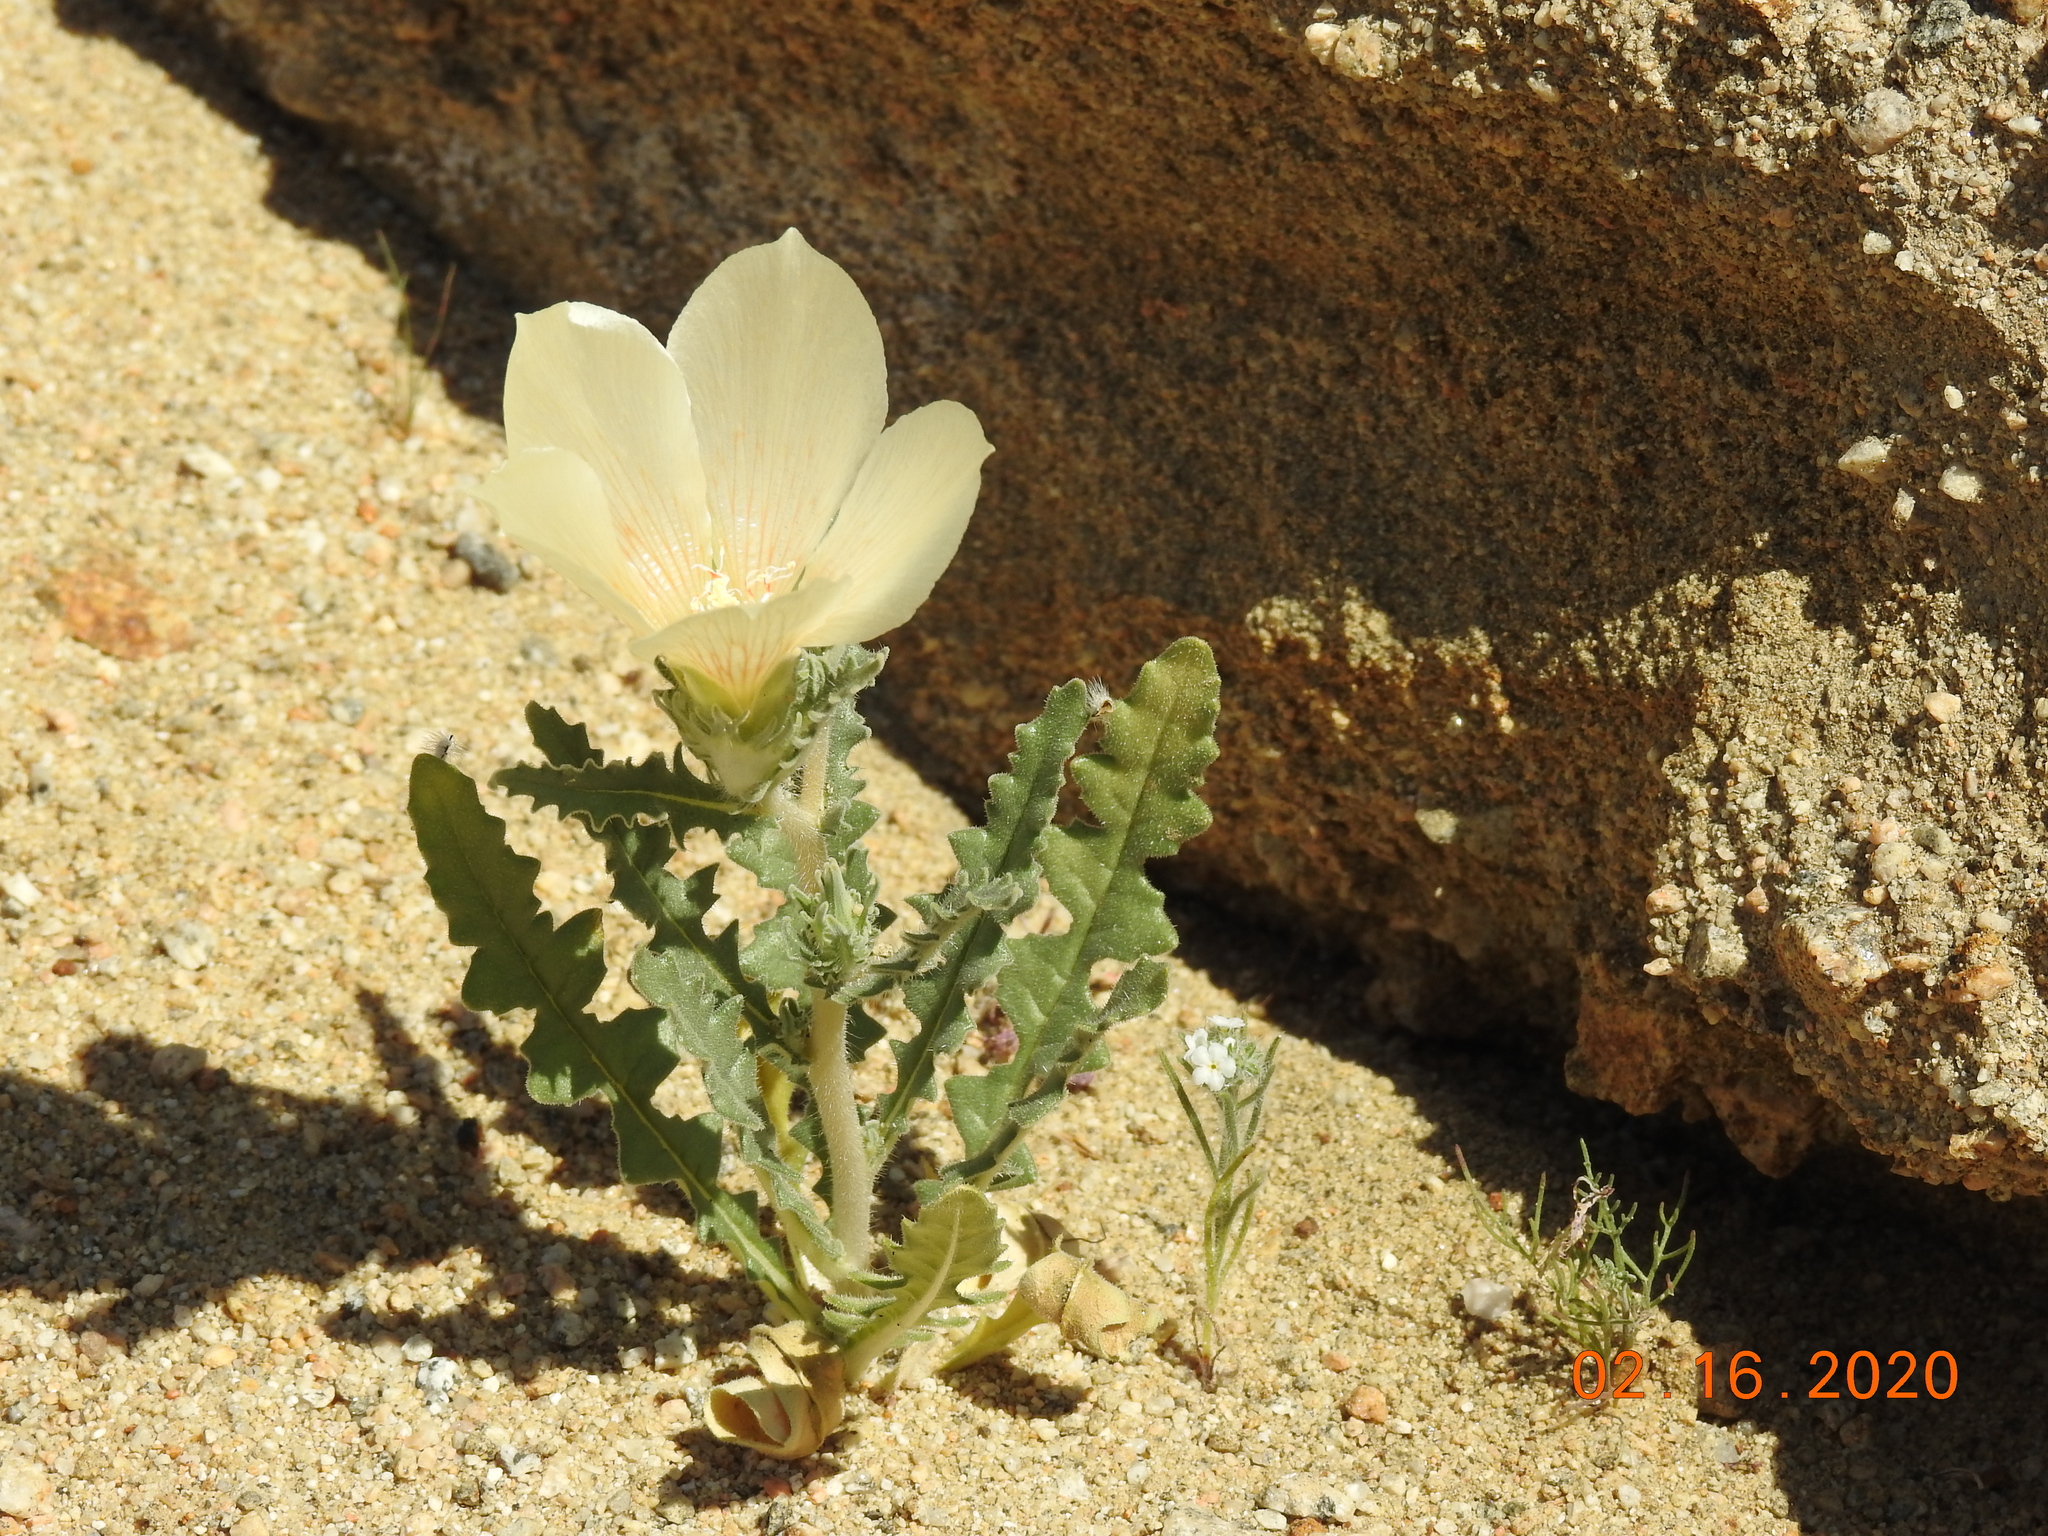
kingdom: Plantae
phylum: Tracheophyta
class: Magnoliopsida
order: Cornales
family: Loasaceae
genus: Mentzelia
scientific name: Mentzelia involucrata
